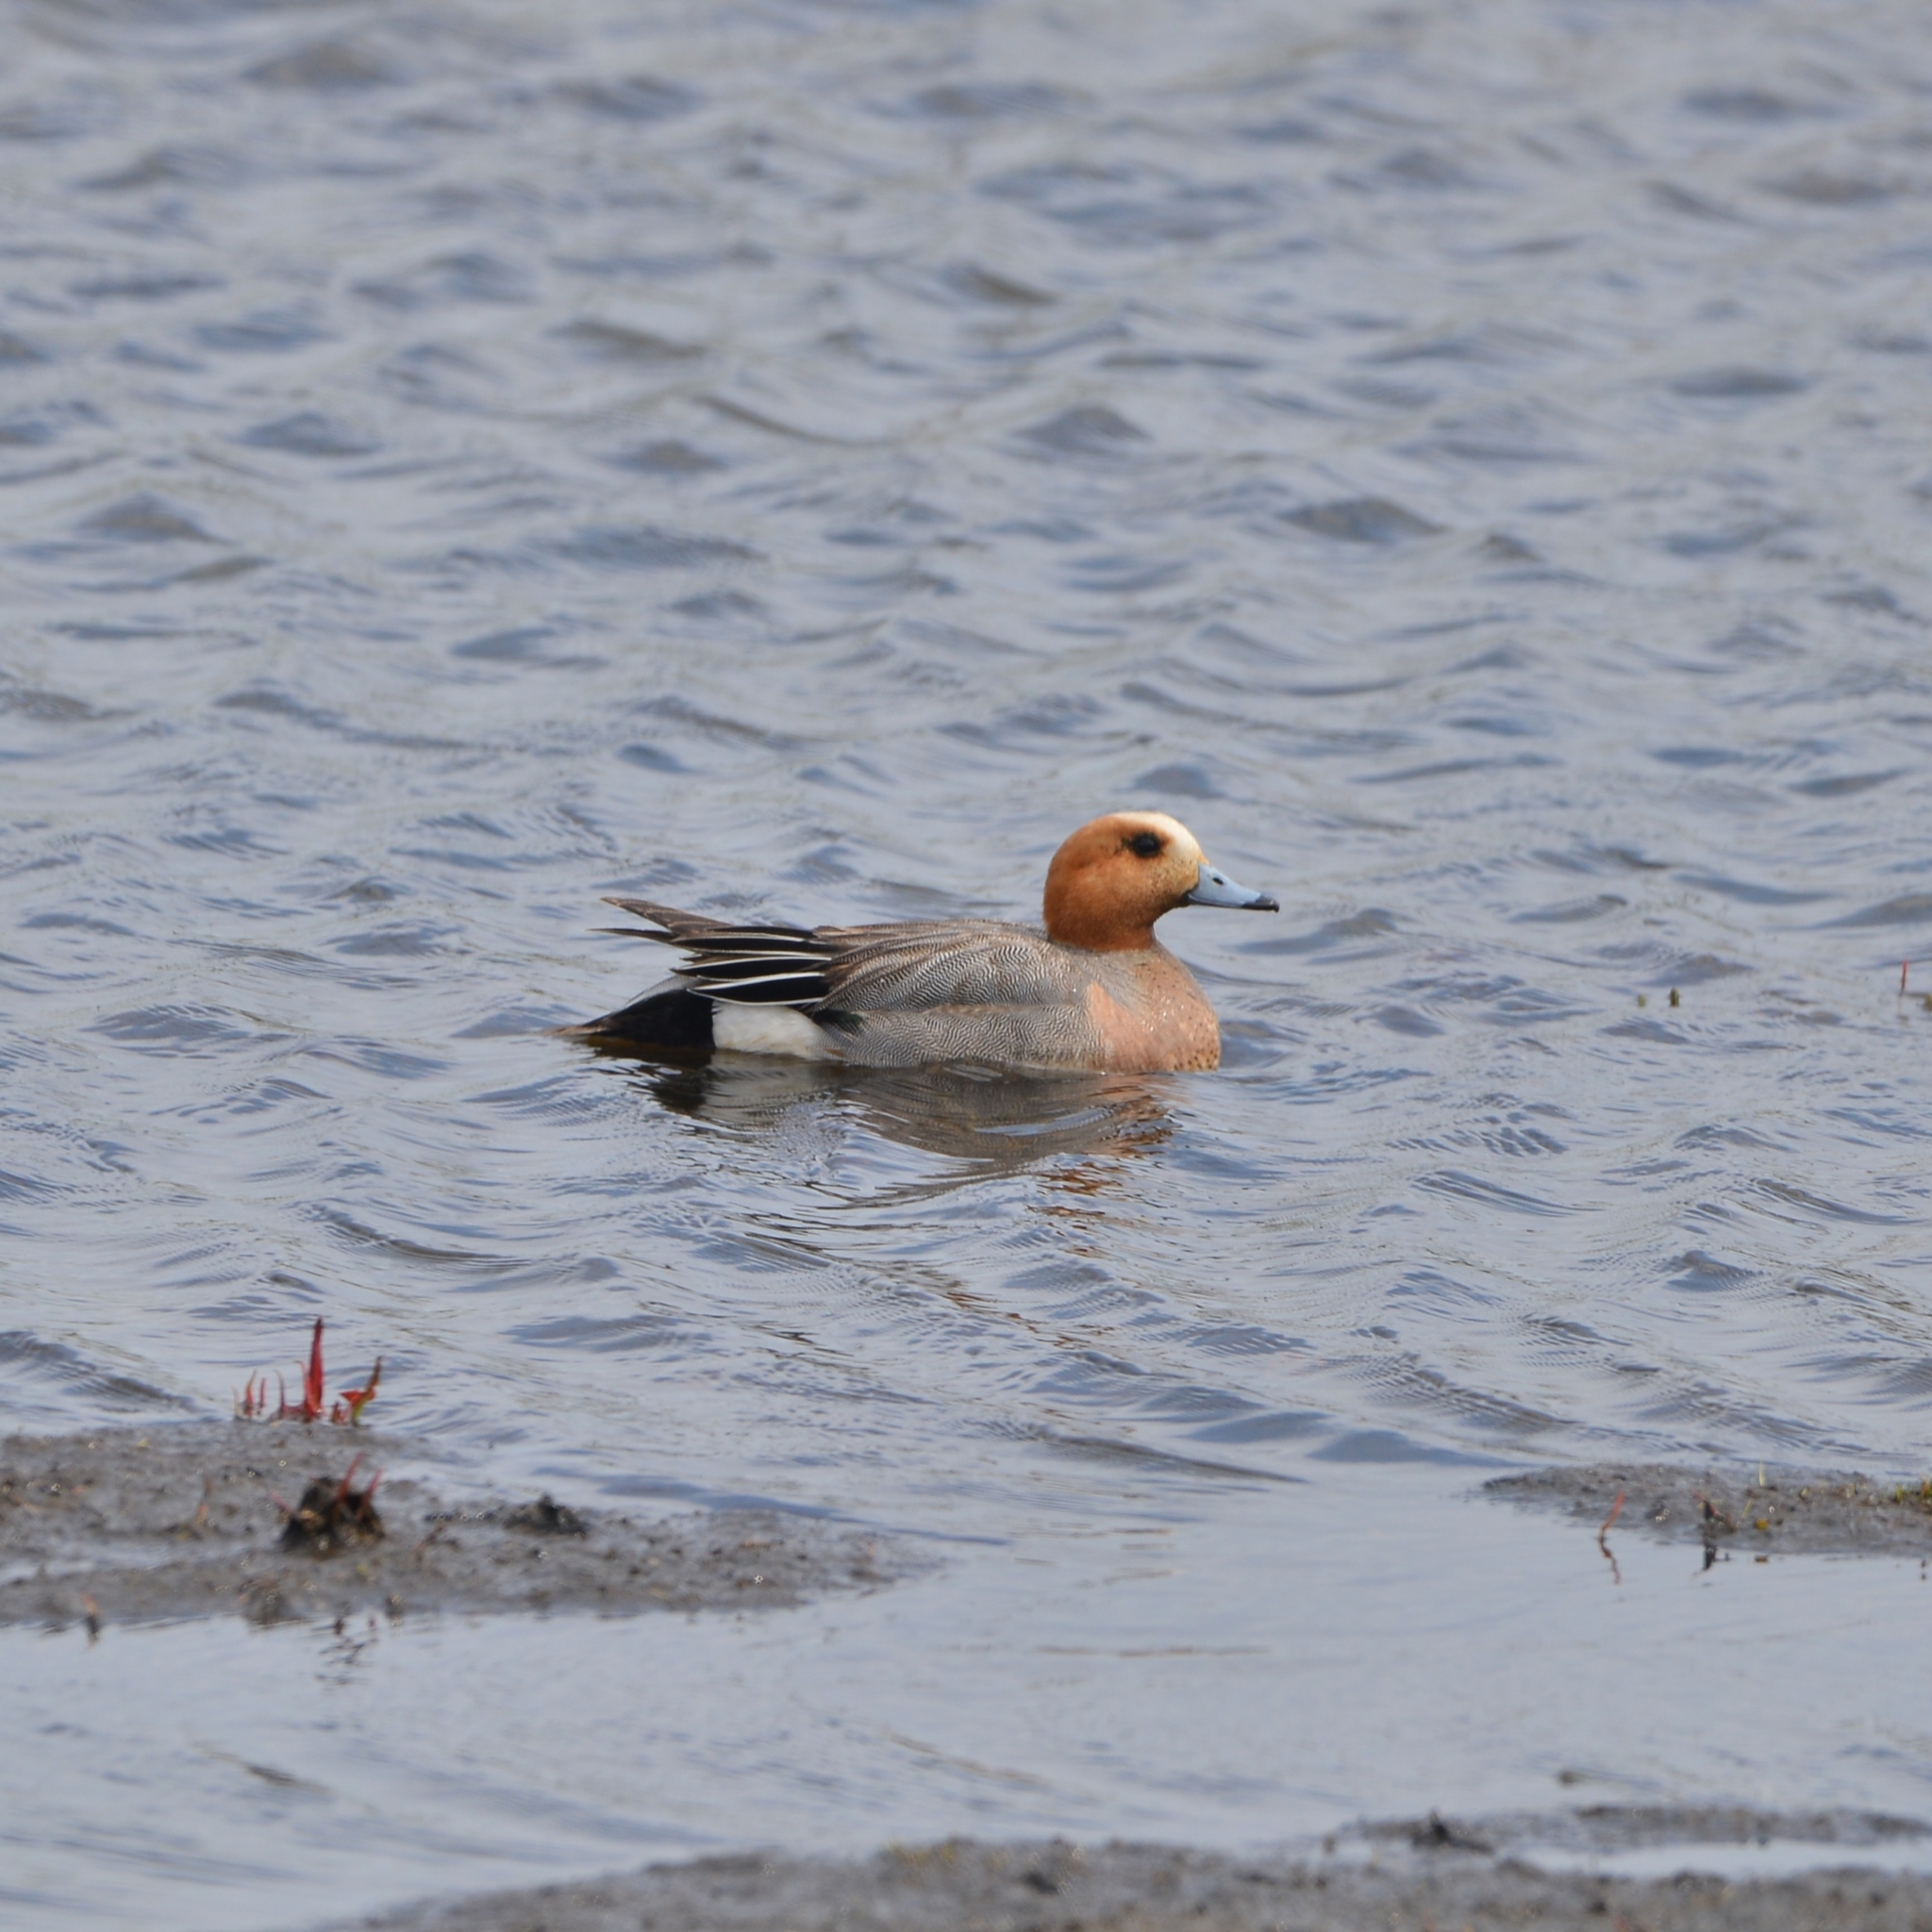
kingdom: Animalia
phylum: Chordata
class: Aves
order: Anseriformes
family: Anatidae
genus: Mareca
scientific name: Mareca penelope
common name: Eurasian wigeon
